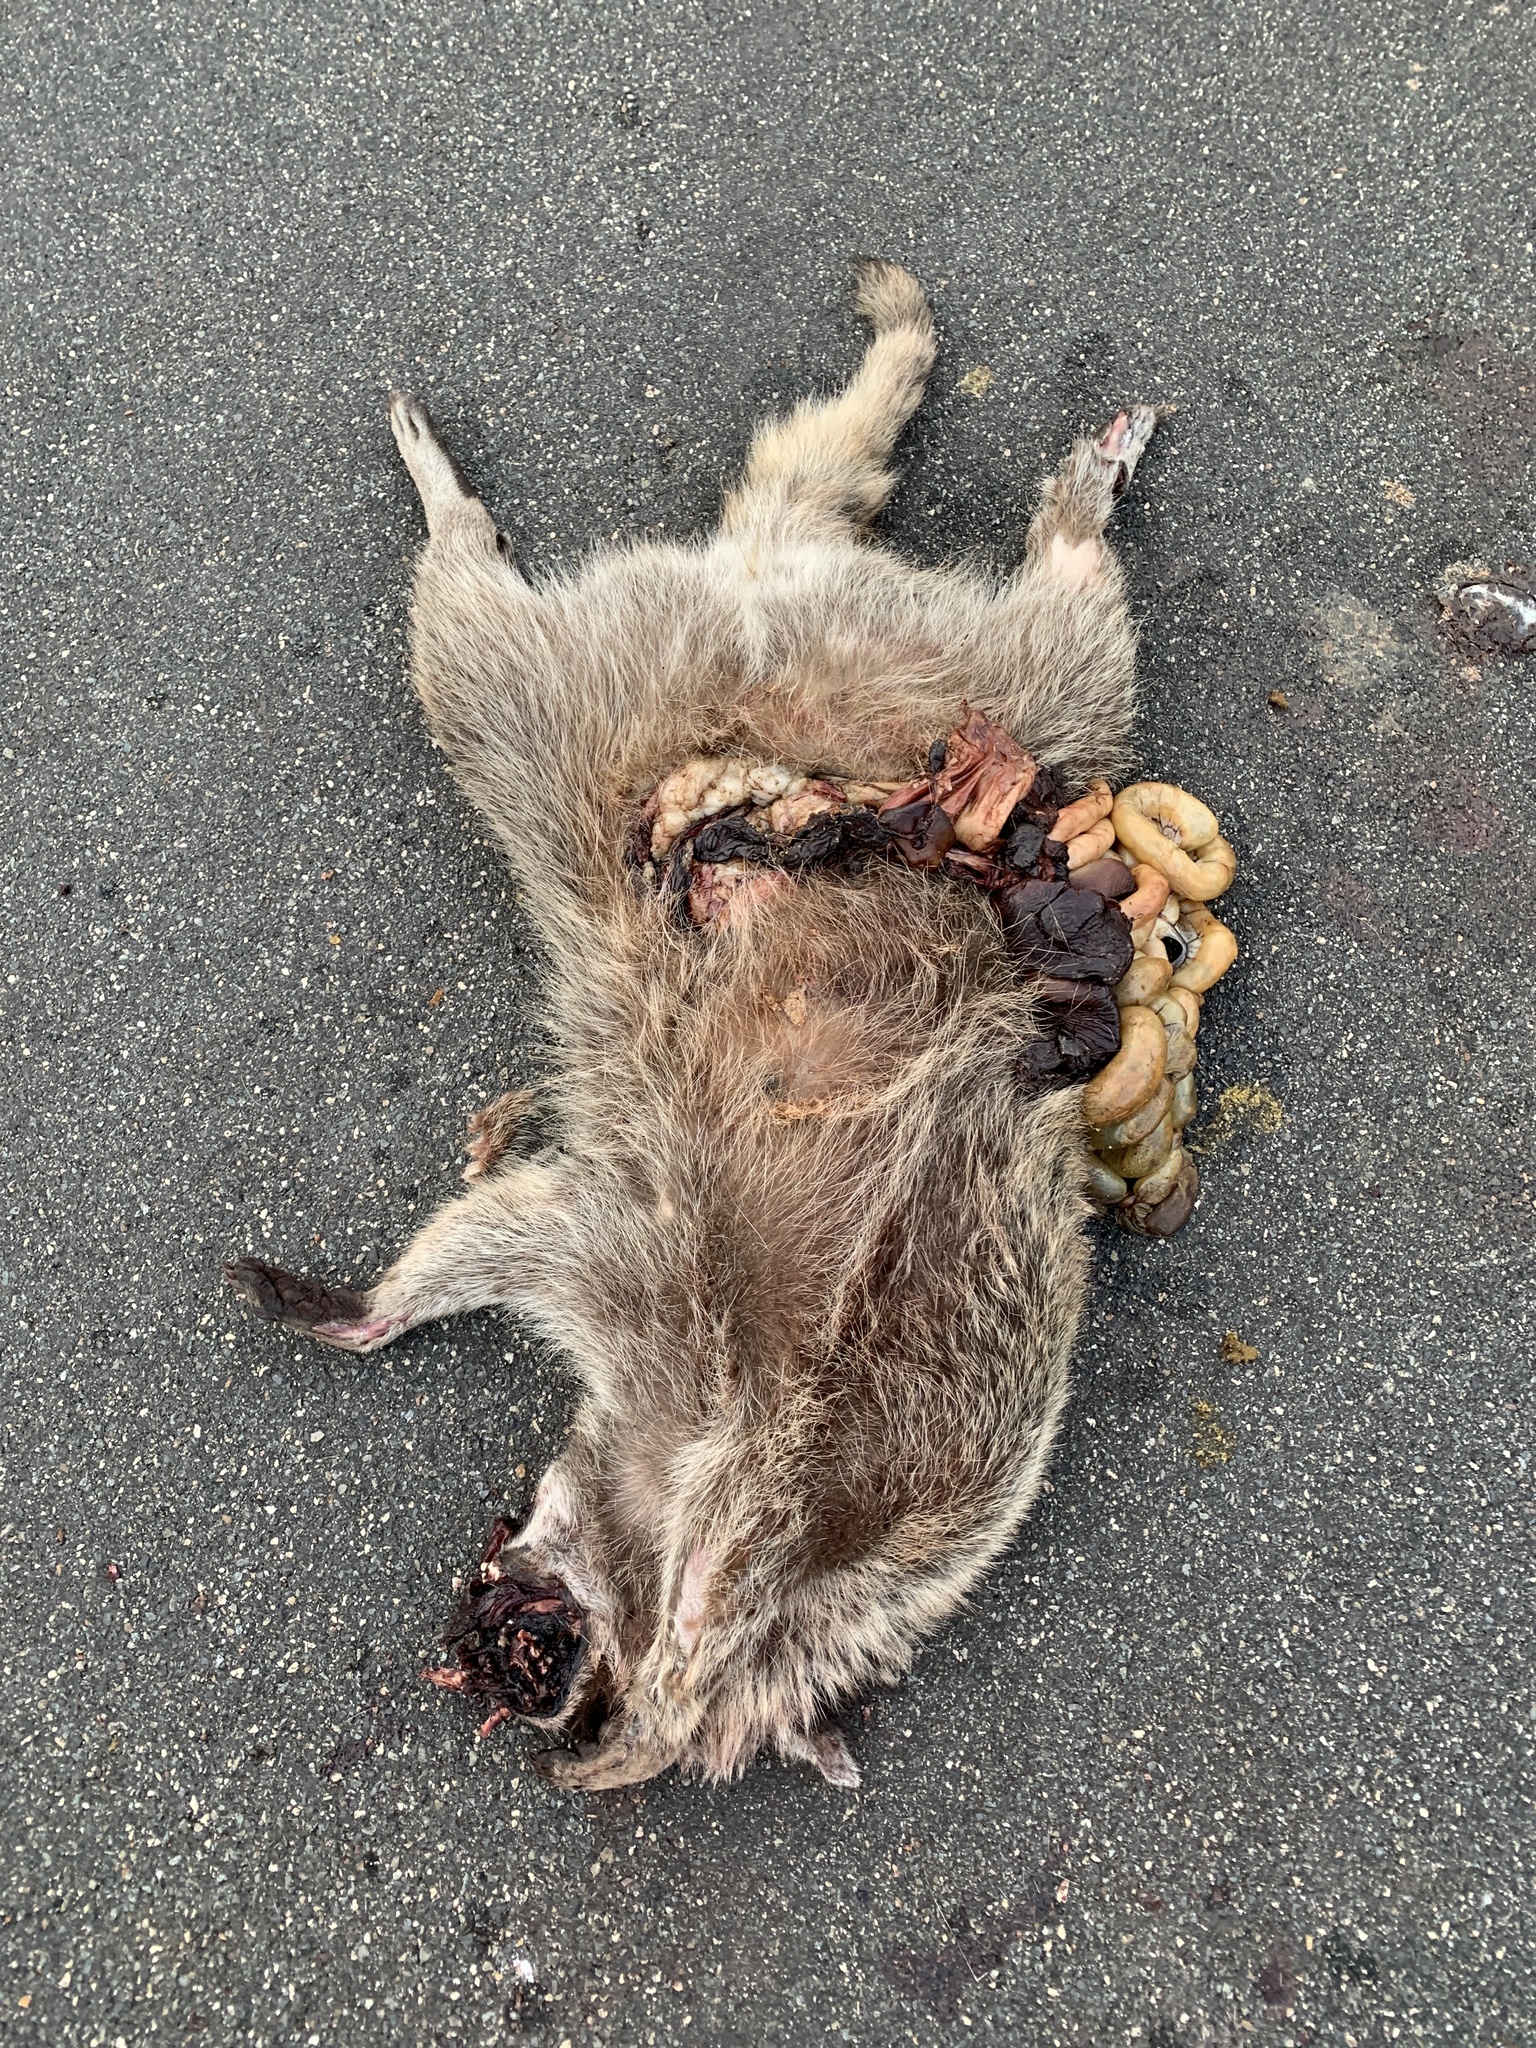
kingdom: Animalia
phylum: Chordata
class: Mammalia
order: Carnivora
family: Procyonidae
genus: Procyon
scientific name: Procyon lotor
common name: Raccoon
